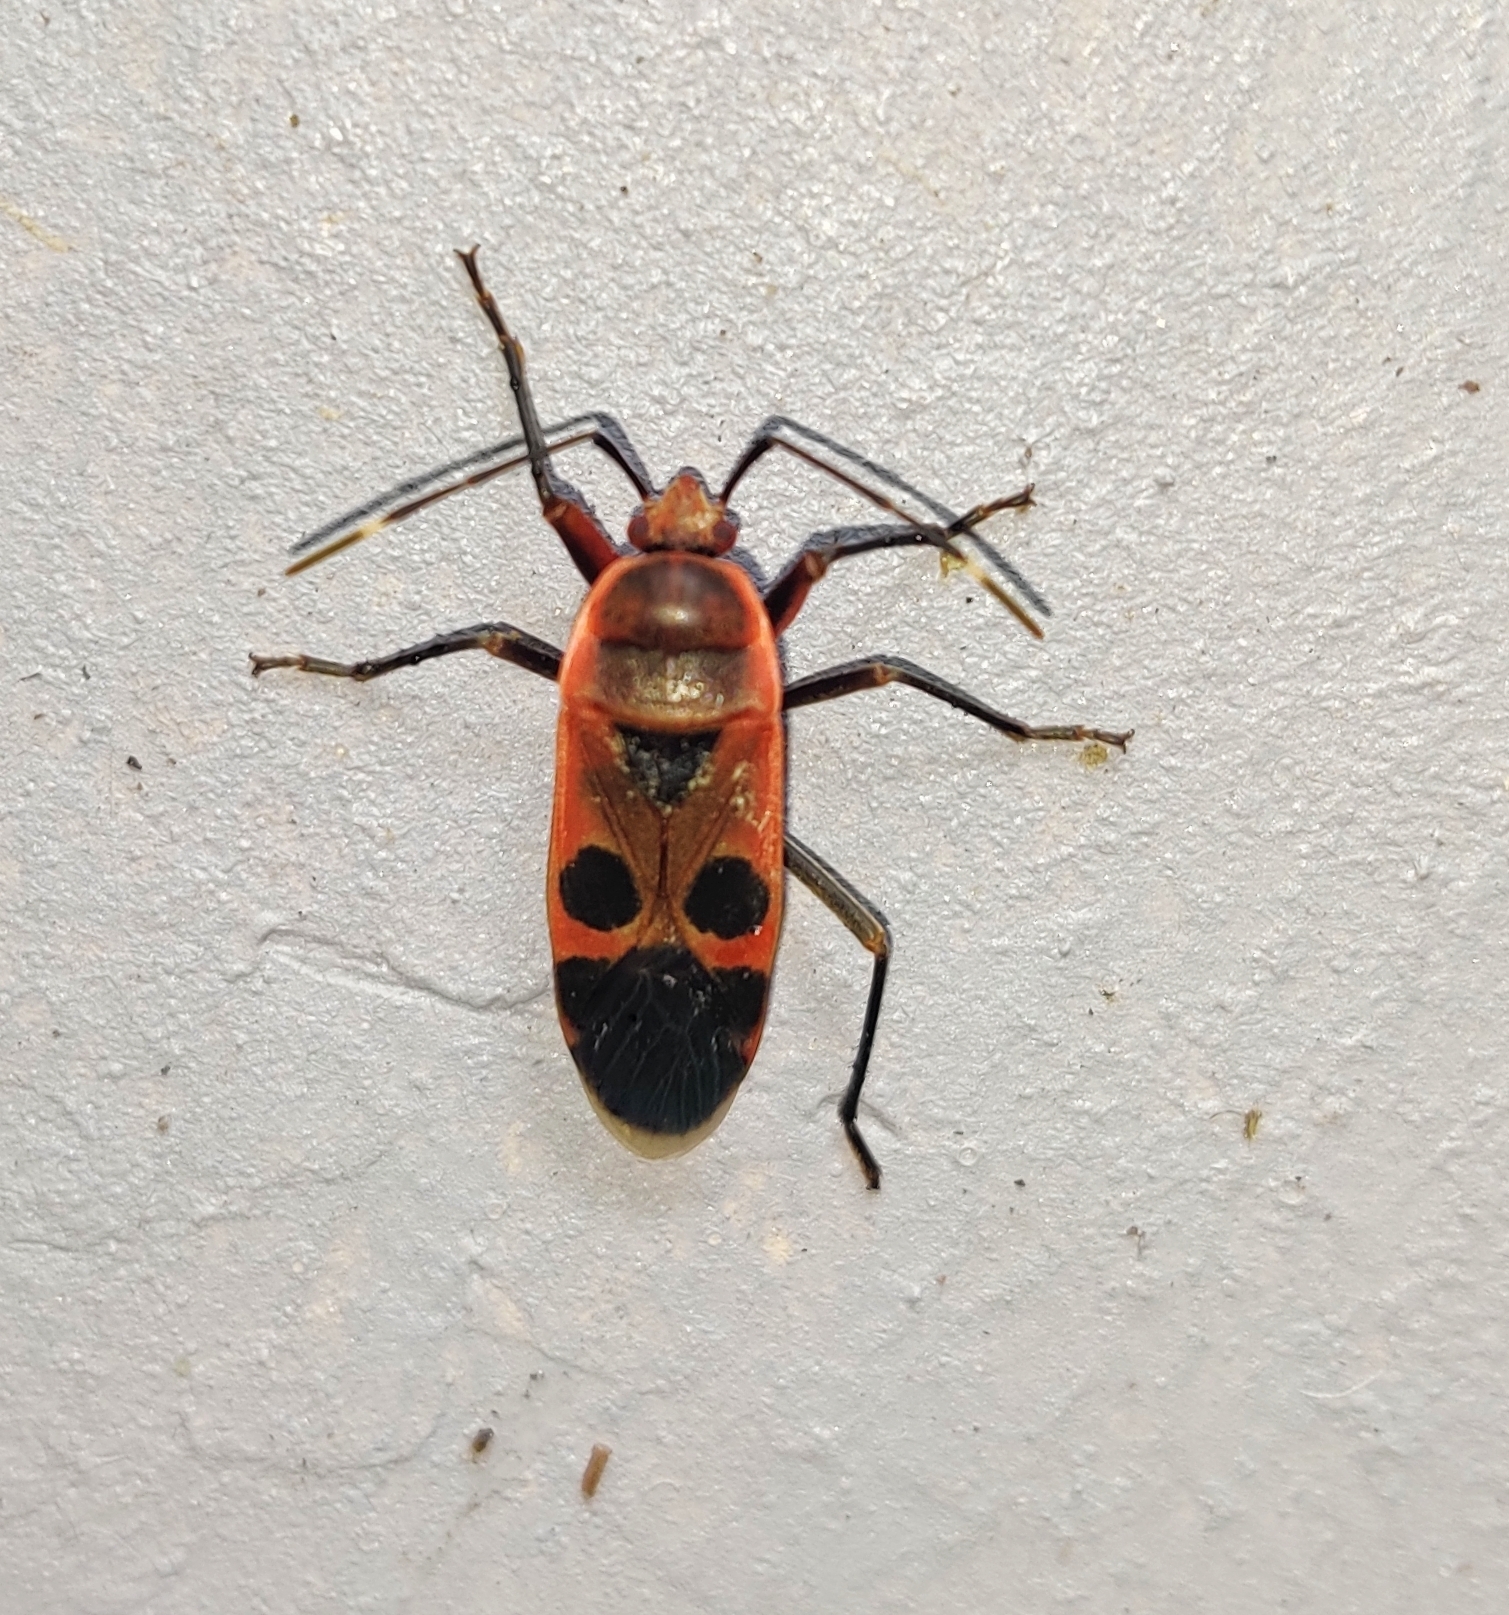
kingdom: Animalia
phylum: Arthropoda
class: Insecta
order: Hemiptera
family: Largidae
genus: Physopelta
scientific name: Physopelta gutta
